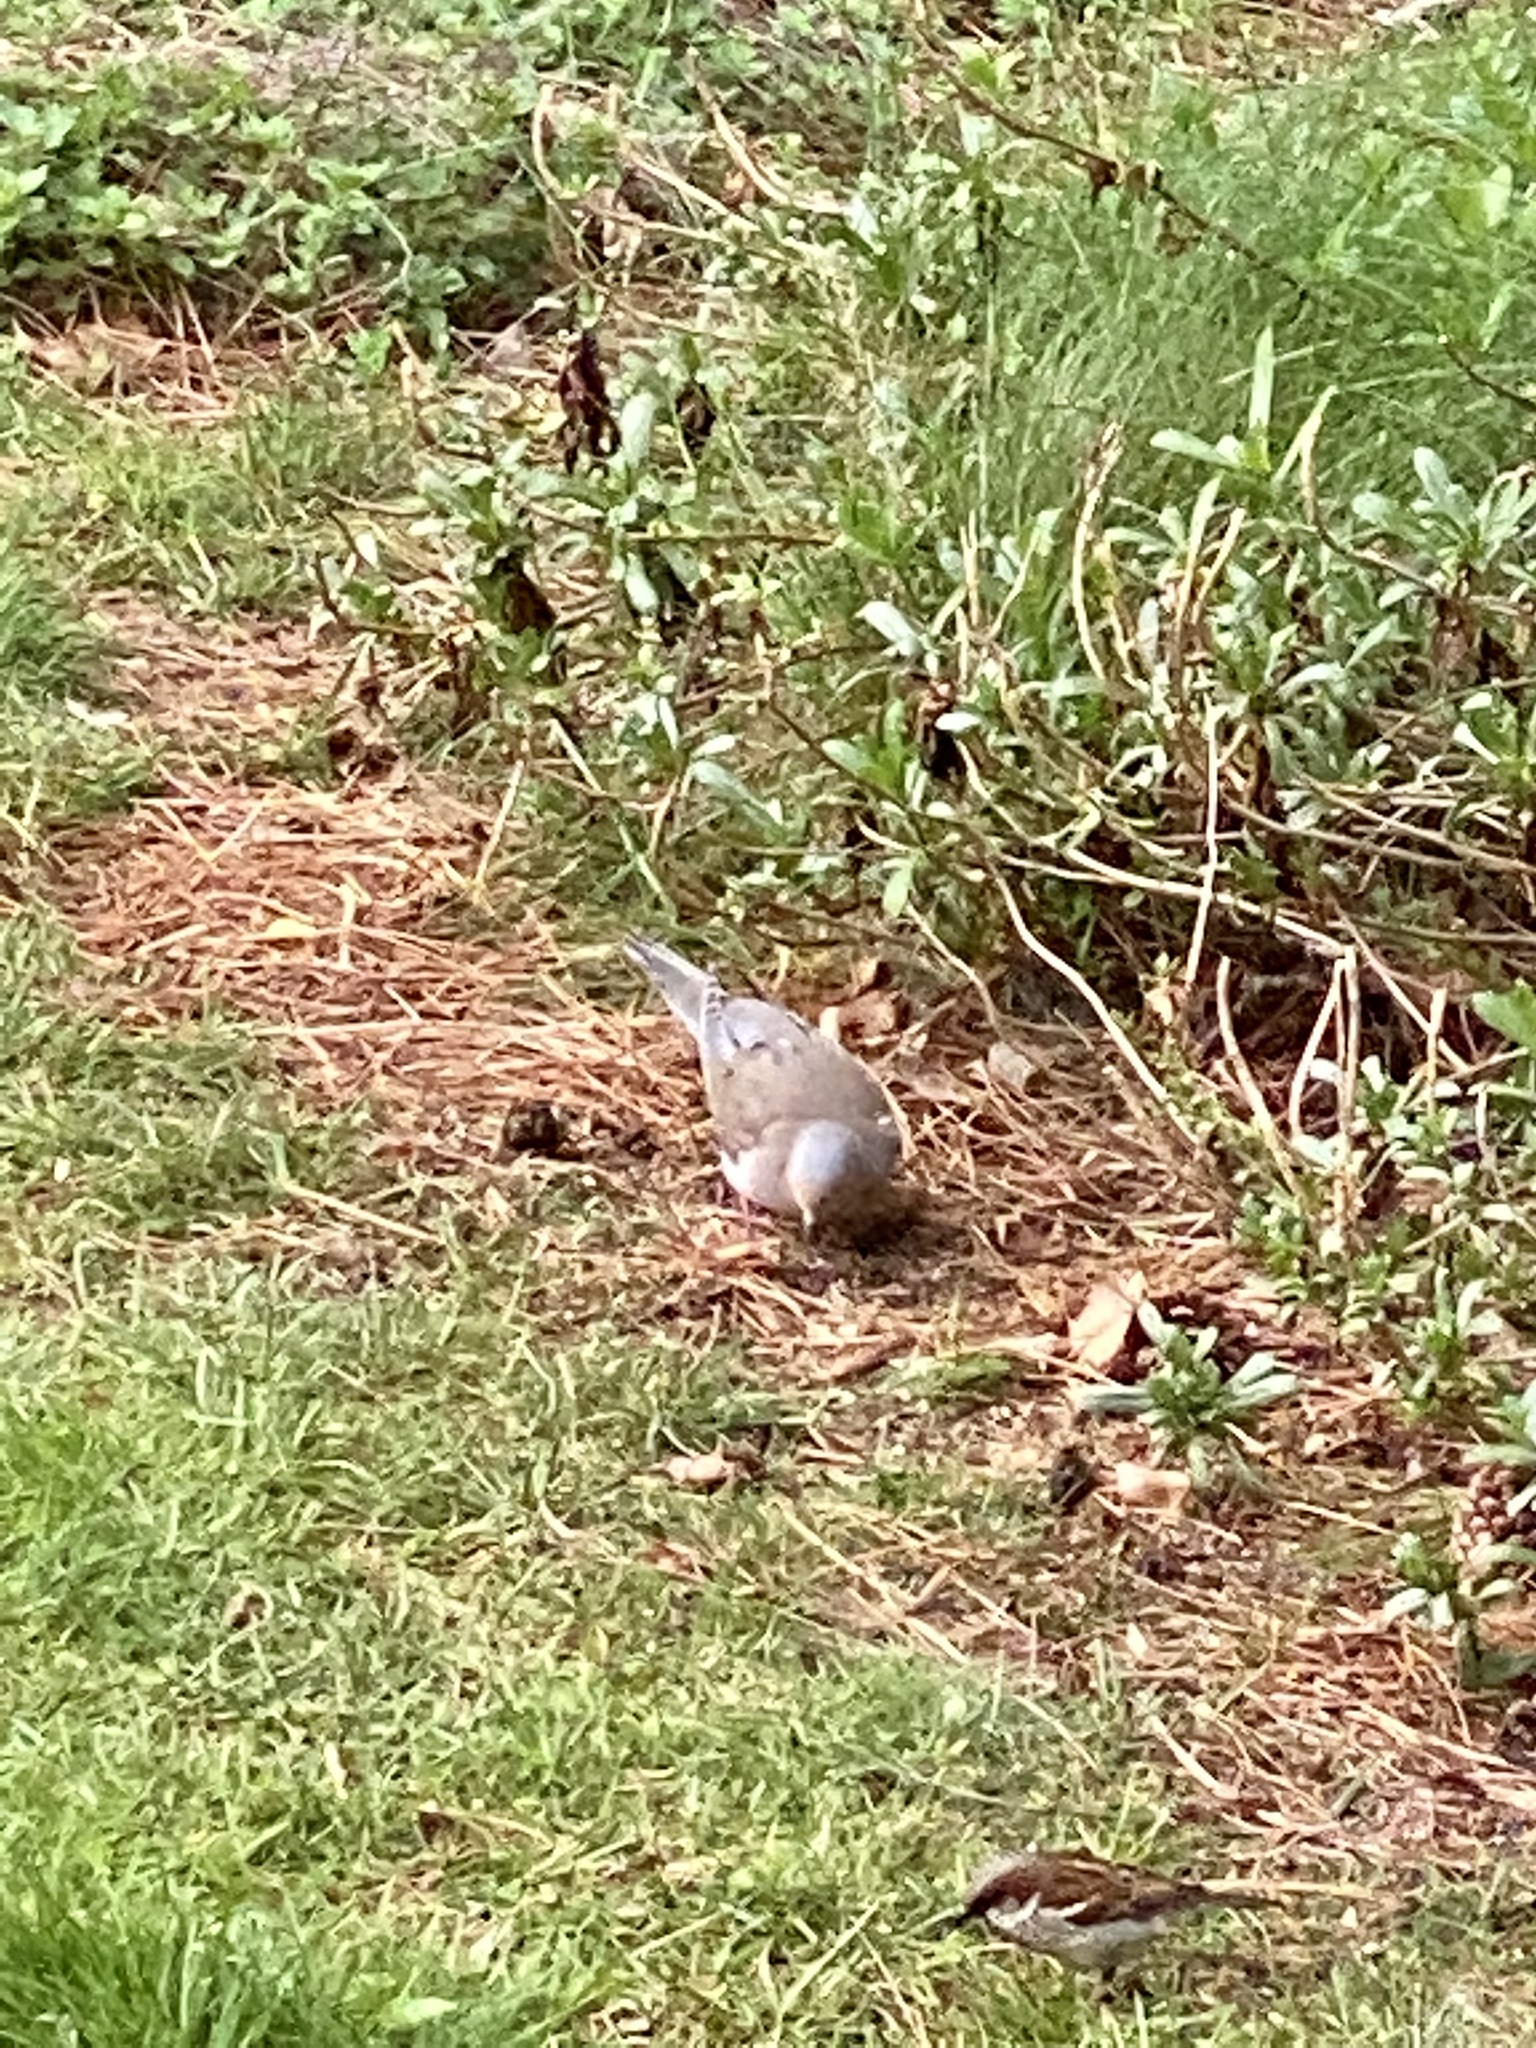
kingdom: Animalia
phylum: Chordata
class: Aves
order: Columbiformes
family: Columbidae
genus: Zenaida
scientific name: Zenaida macroura
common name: Mourning dove
